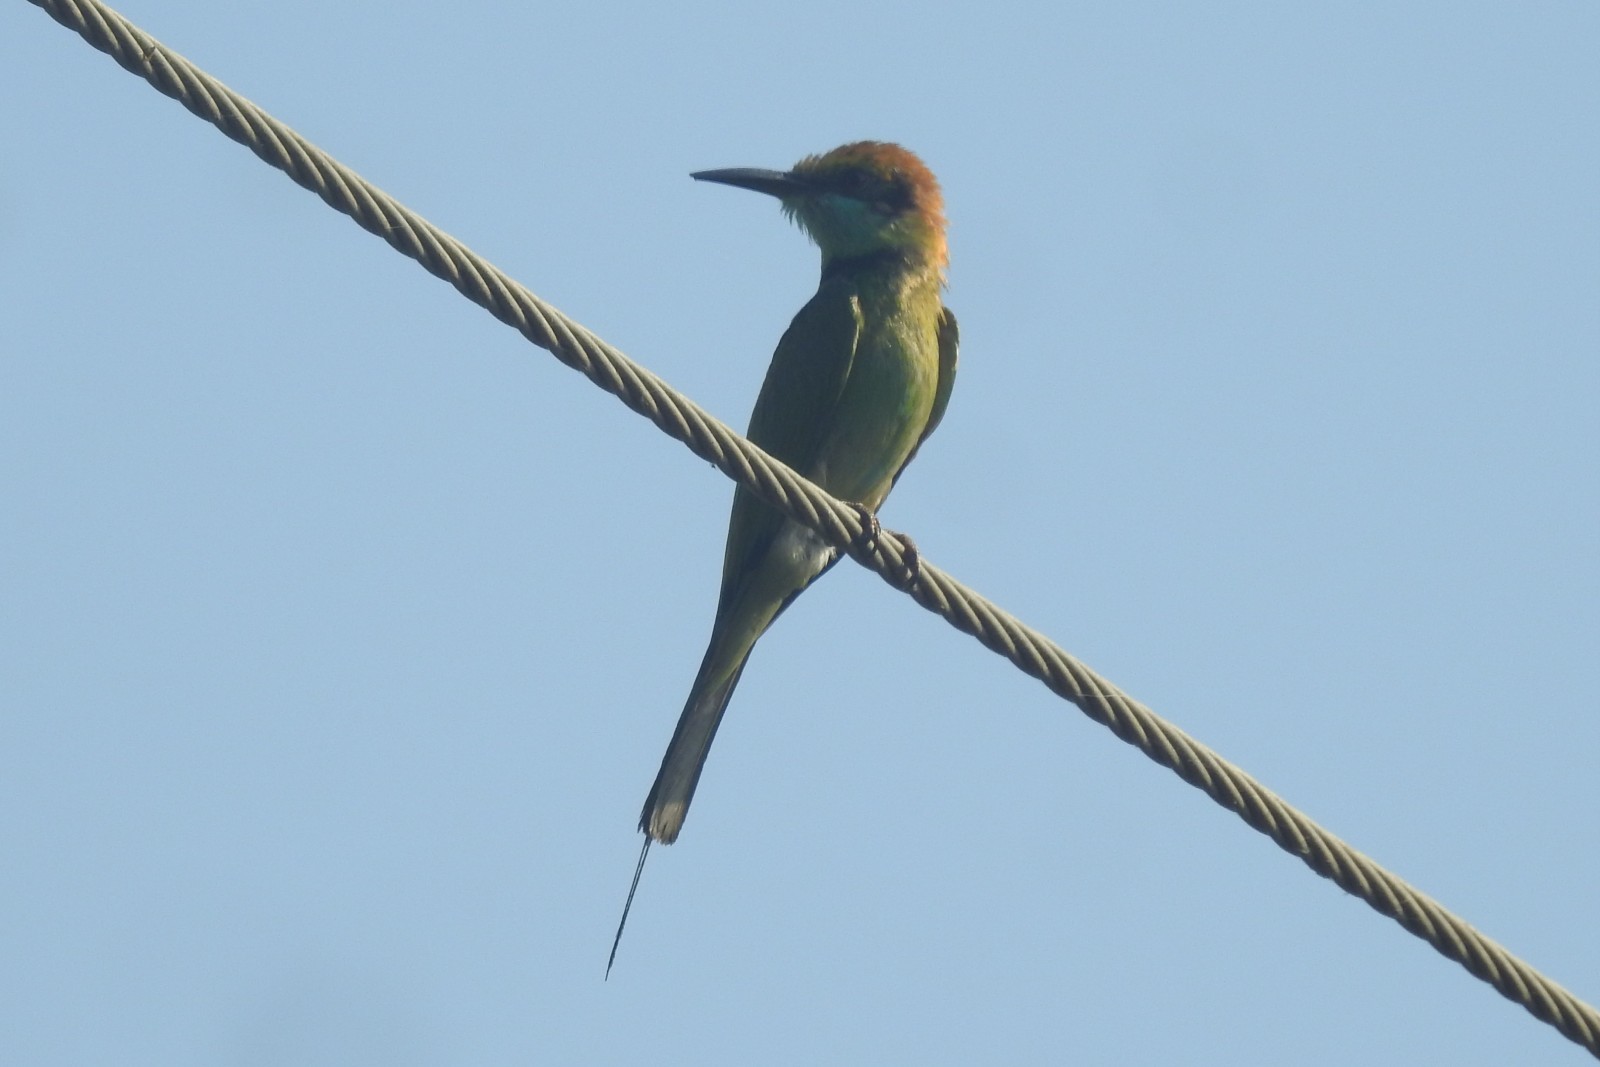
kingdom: Animalia
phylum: Chordata
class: Aves
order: Coraciiformes
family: Meropidae
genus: Merops
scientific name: Merops orientalis
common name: Green bee-eater
